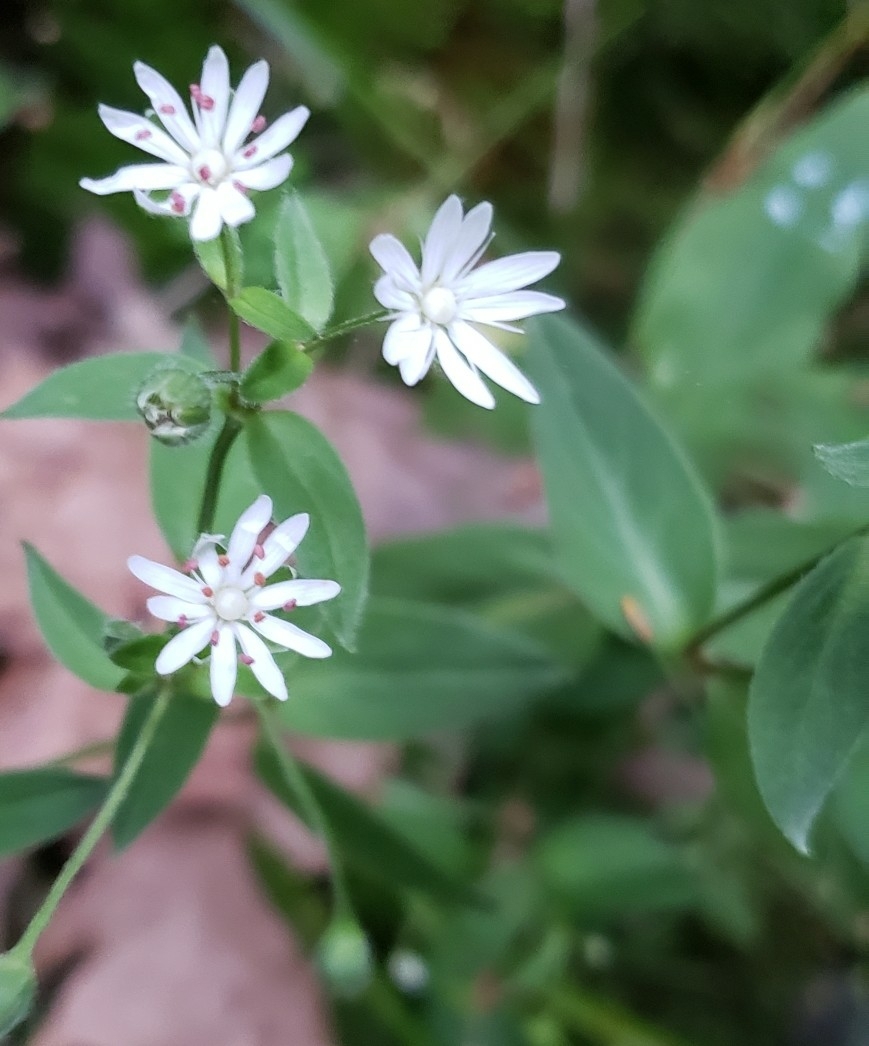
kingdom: Plantae
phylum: Tracheophyta
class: Magnoliopsida
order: Caryophyllales
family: Caryophyllaceae
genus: Stellaria
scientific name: Stellaria pubera
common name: Star chickweed
